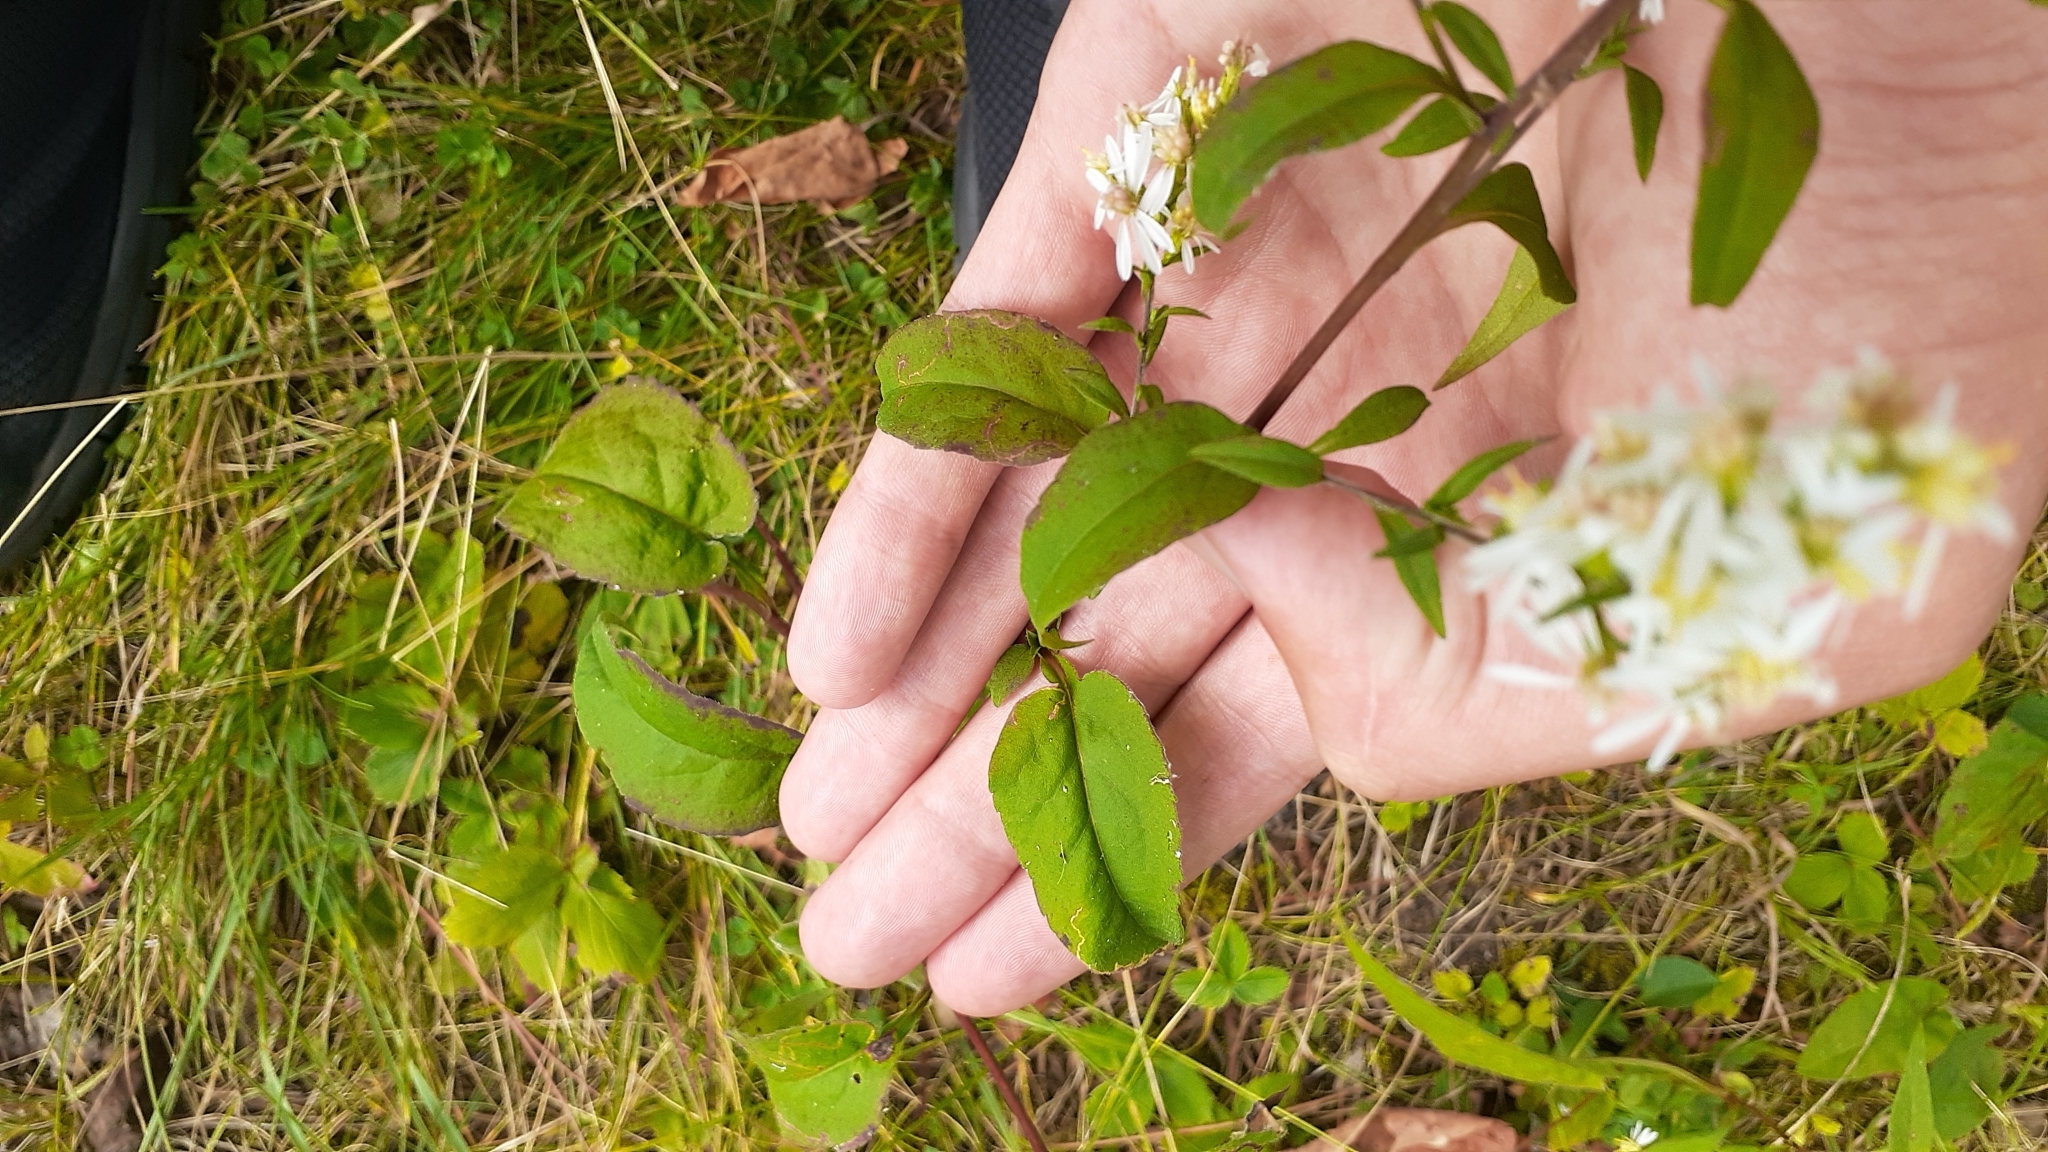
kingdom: Plantae
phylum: Tracheophyta
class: Magnoliopsida
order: Asterales
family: Asteraceae
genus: Symphyotrichum
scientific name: Symphyotrichum urophyllum
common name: Arrow-leaved aster
